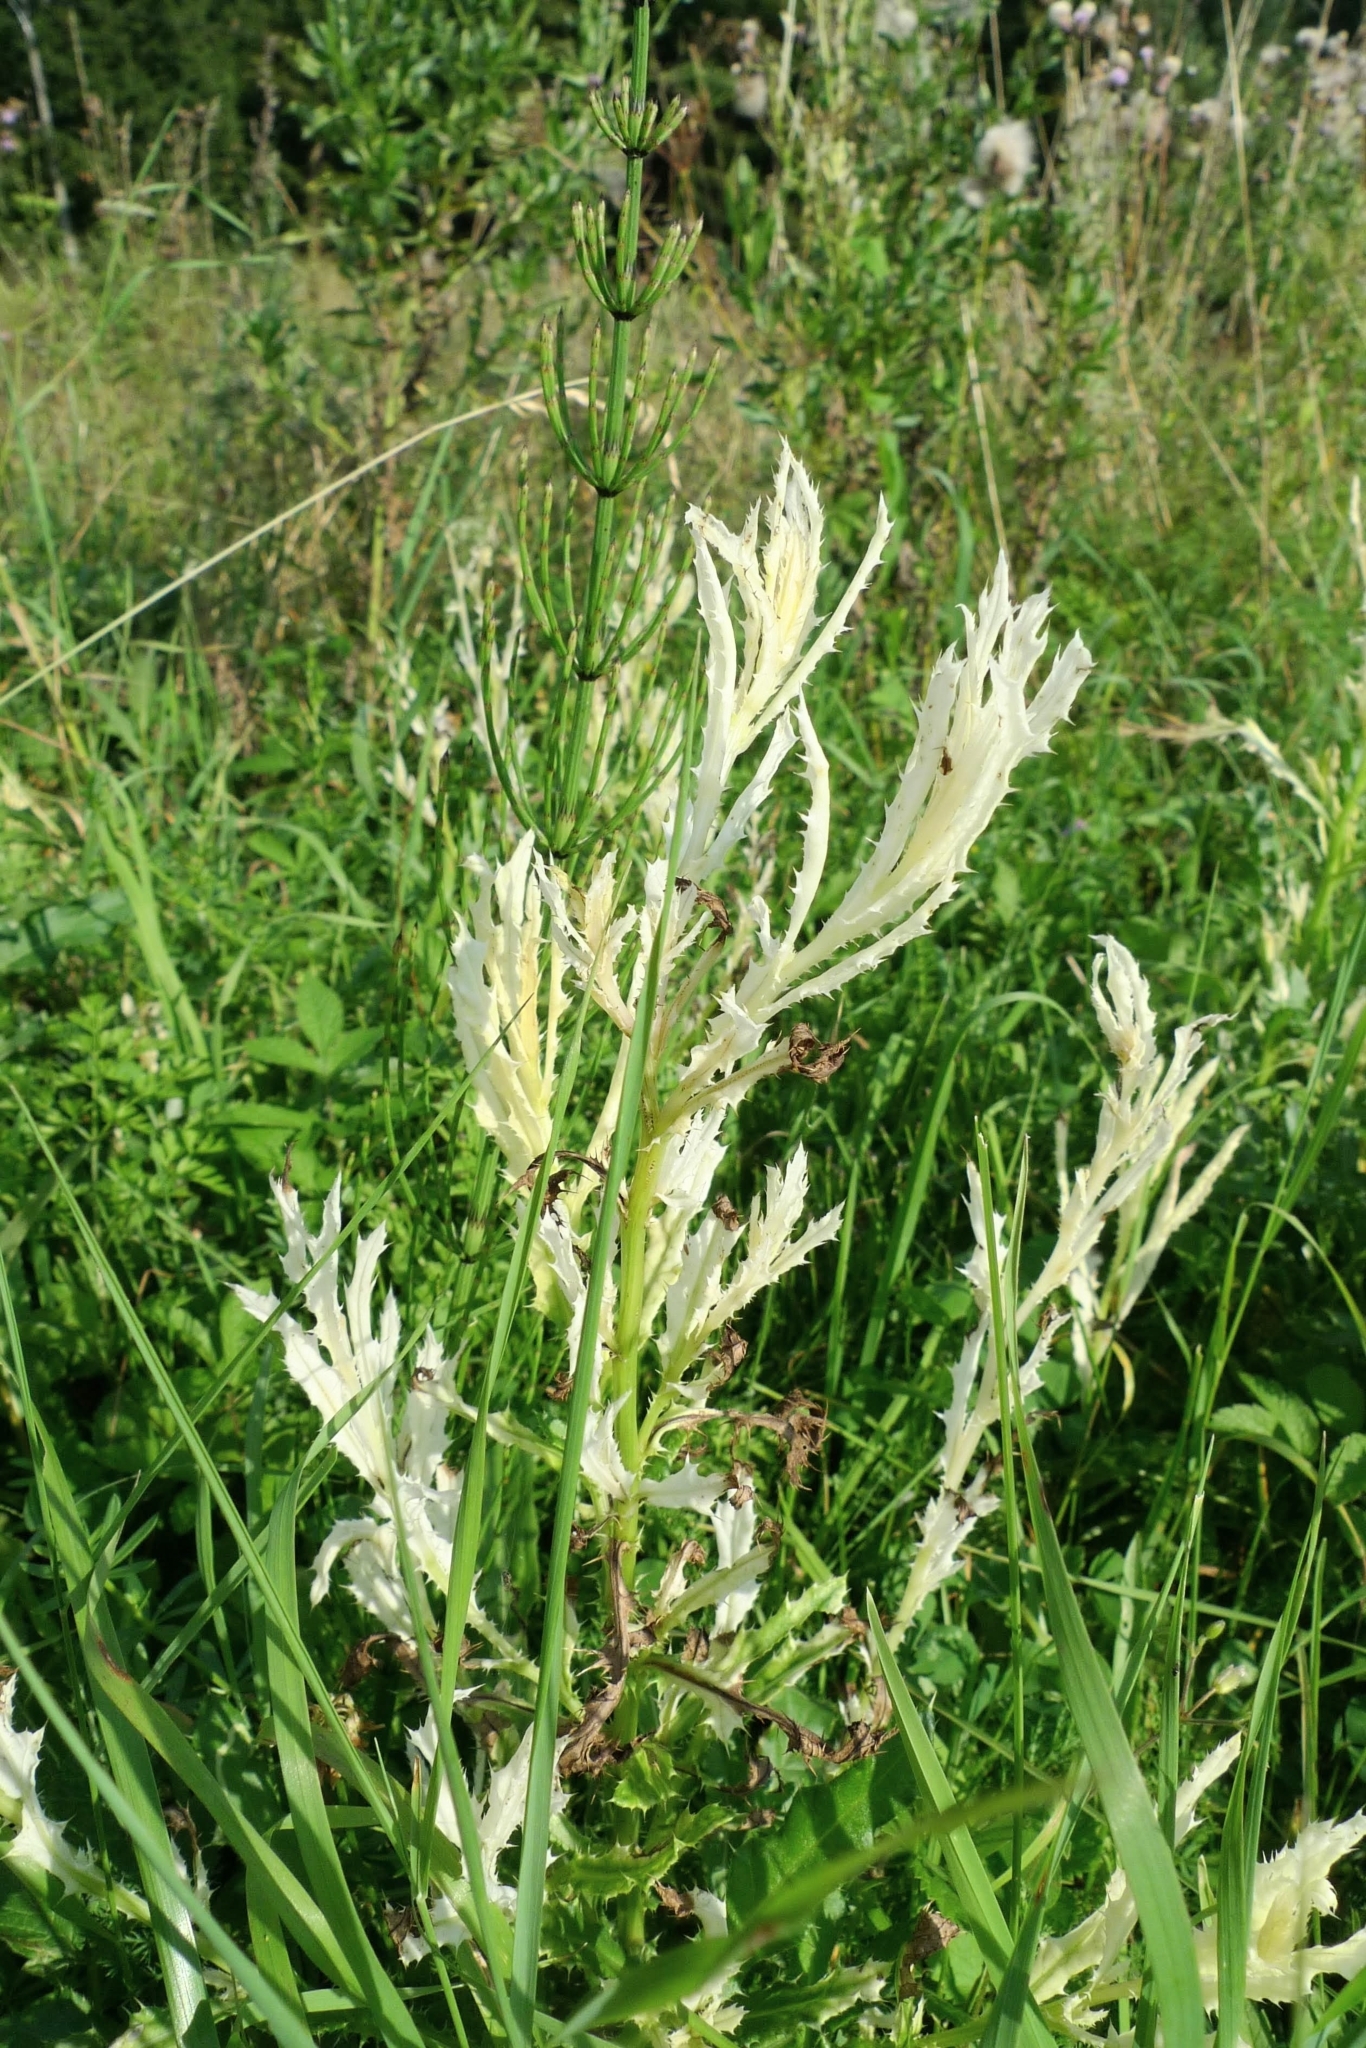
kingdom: Bacteria
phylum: Proteobacteria
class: Gammaproteobacteria
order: Pseudomonadales
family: Pseudomonadaceae
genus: Pseudomonas
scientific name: Pseudomonas syringae
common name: Bacterial speck
